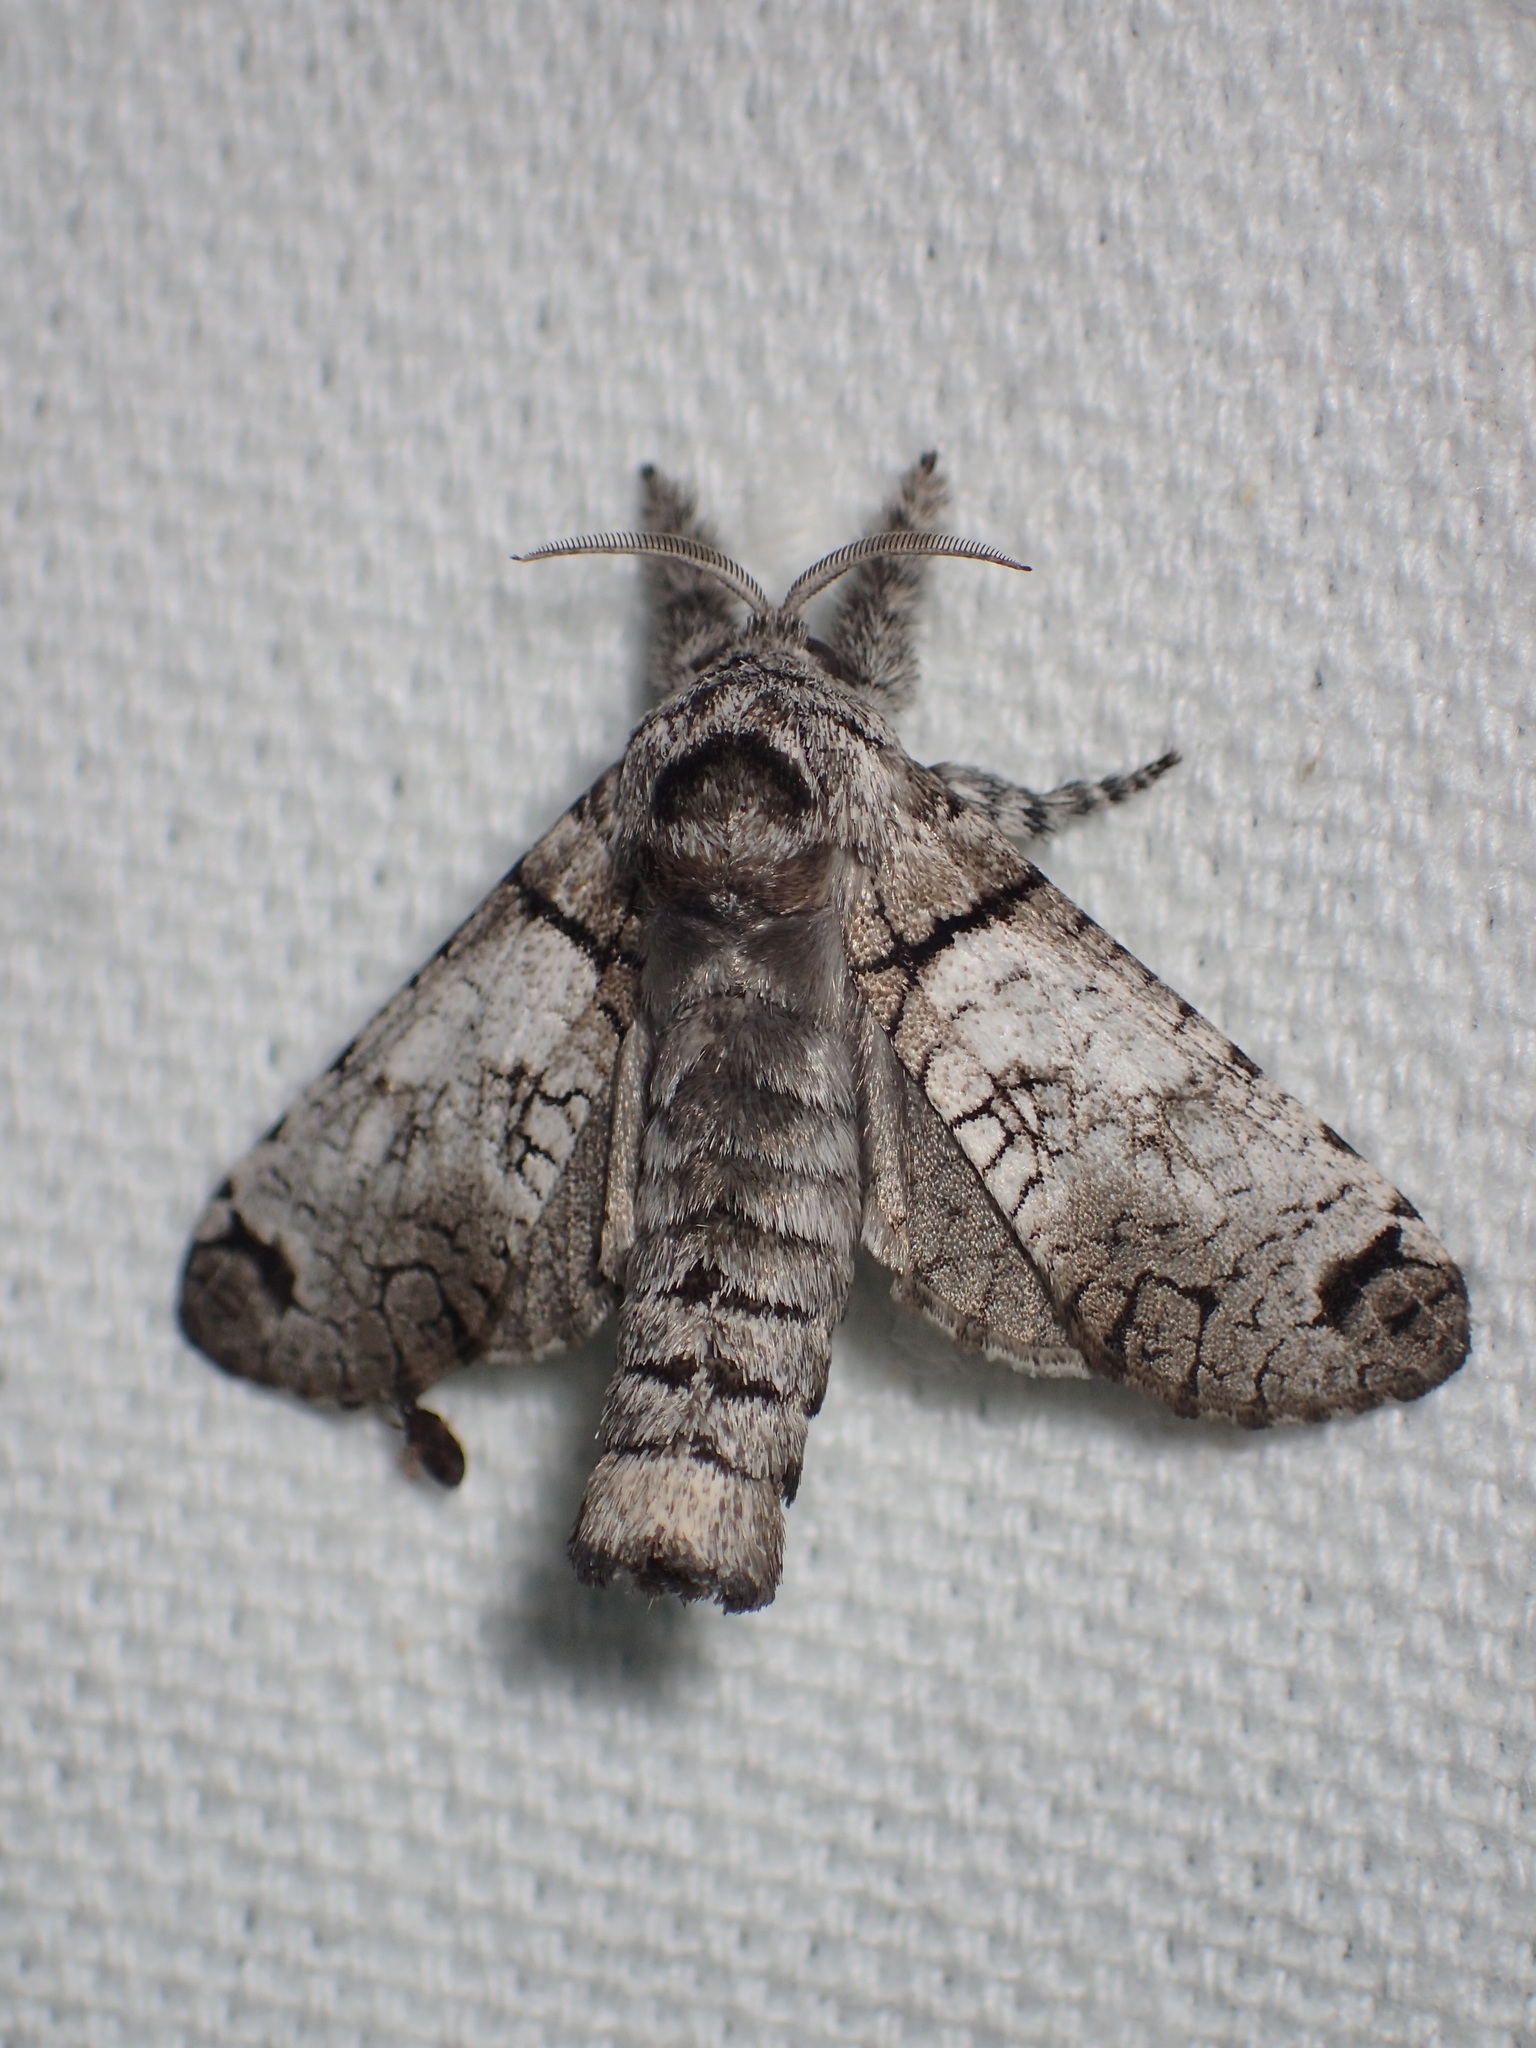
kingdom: Animalia
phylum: Arthropoda
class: Insecta
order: Lepidoptera
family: Cossidae
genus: Inguromorpha
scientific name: Inguromorpha basalis
